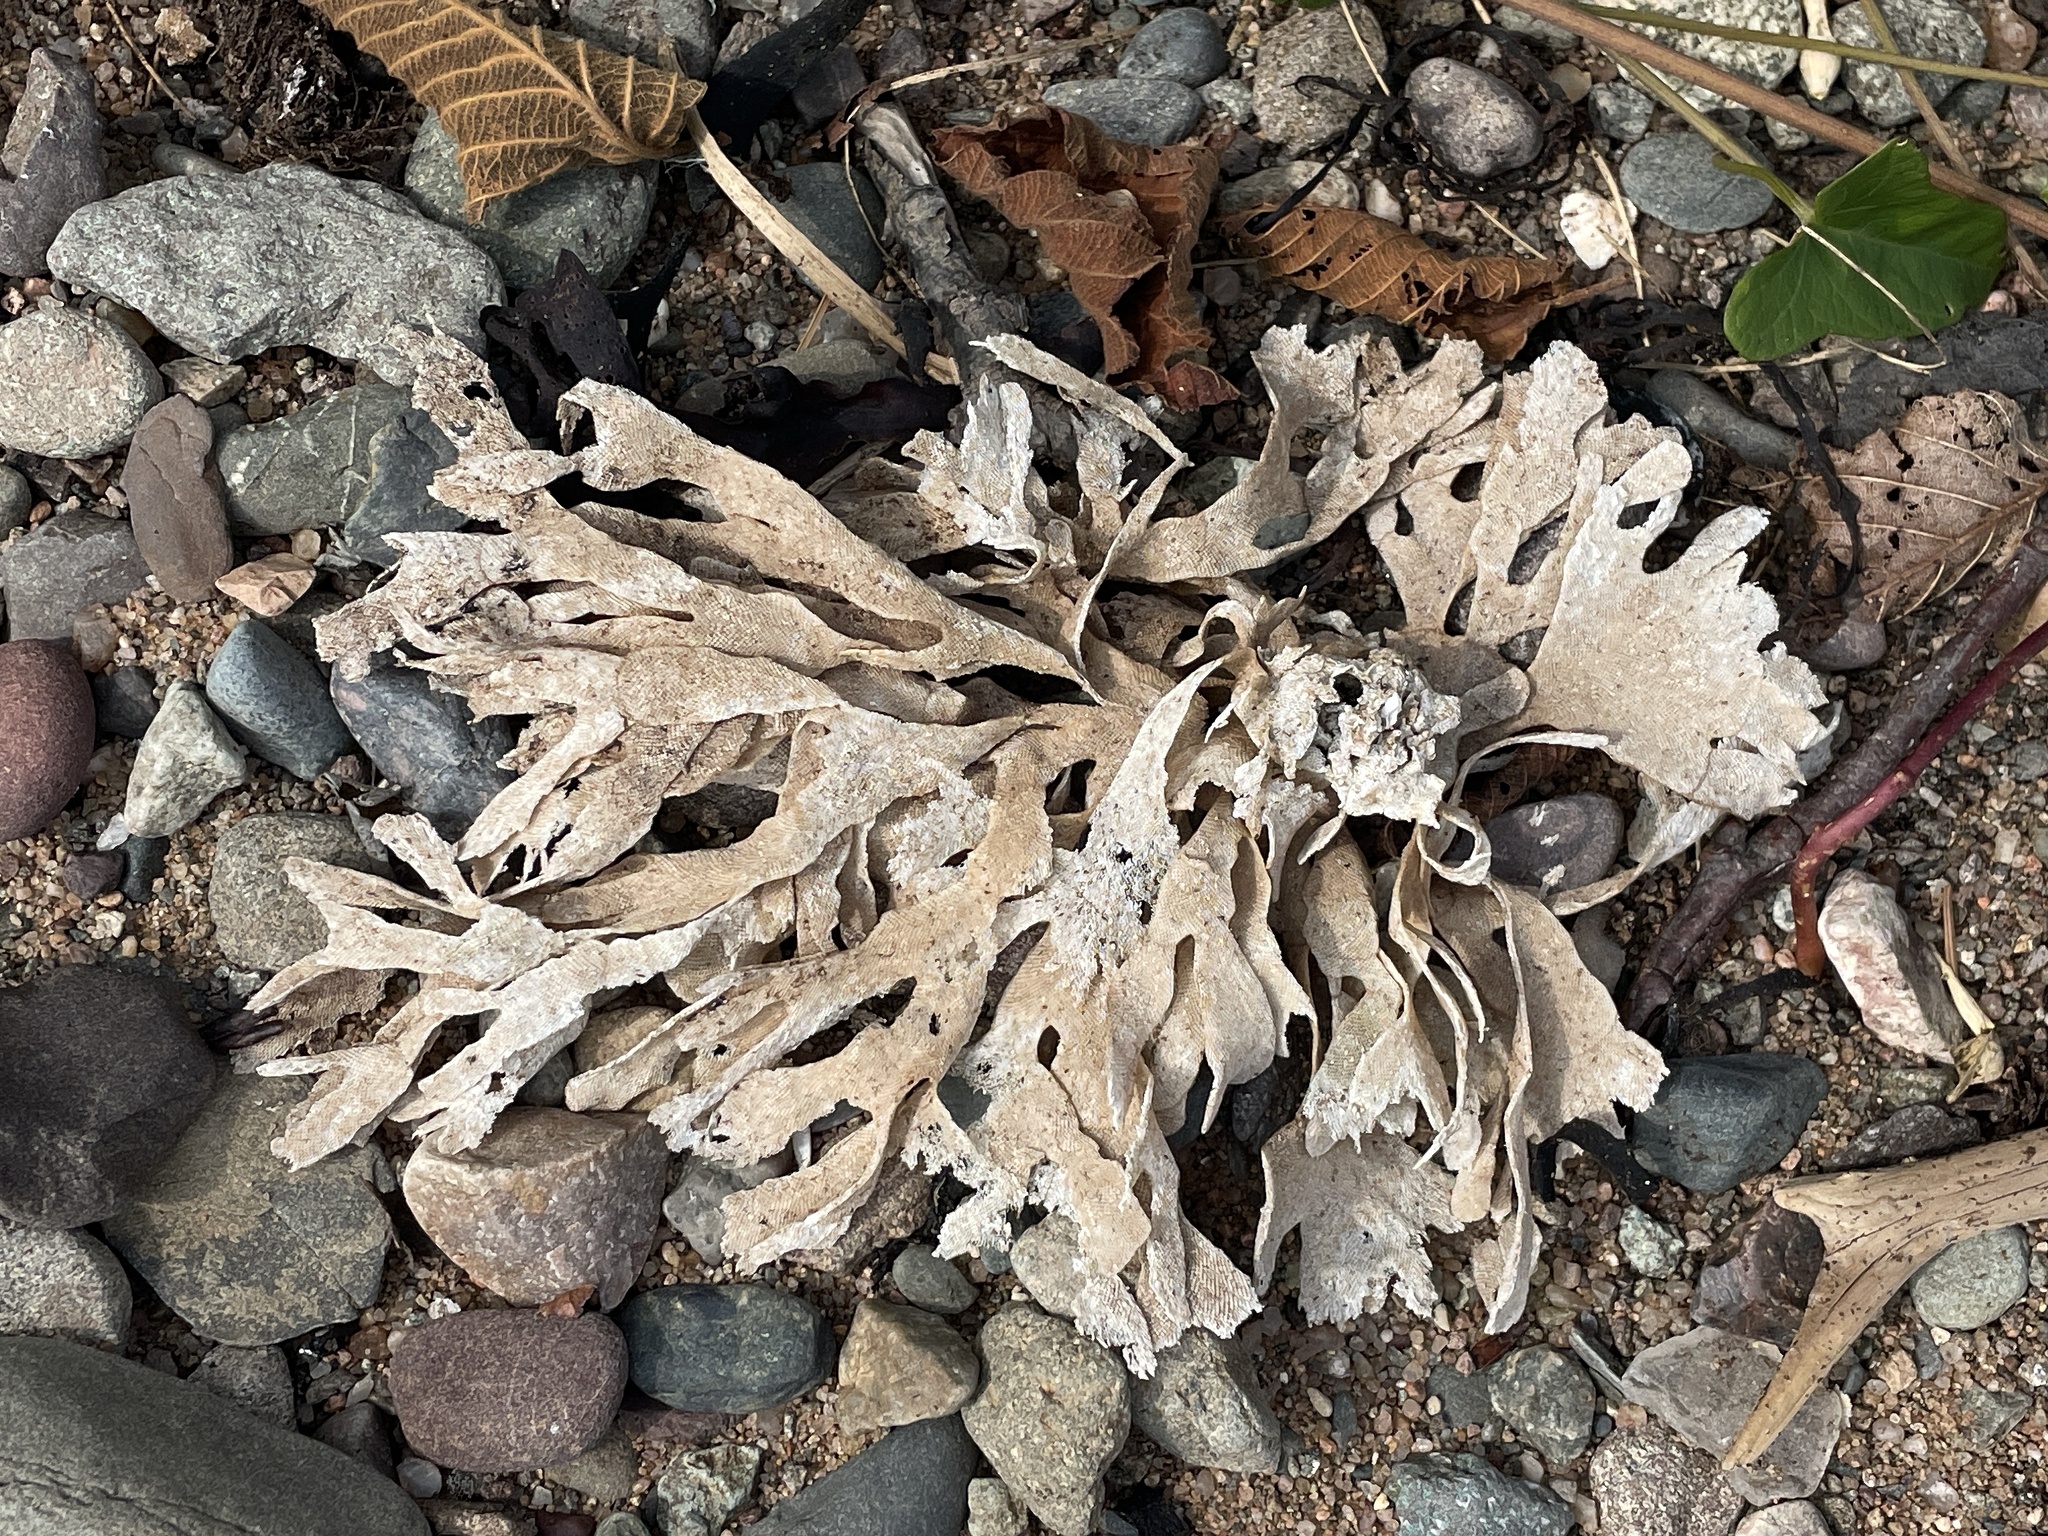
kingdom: Animalia
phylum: Bryozoa
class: Gymnolaemata
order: Cheilostomatida
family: Flustridae
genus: Flustra
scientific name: Flustra foliacea
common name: Hornwrack
